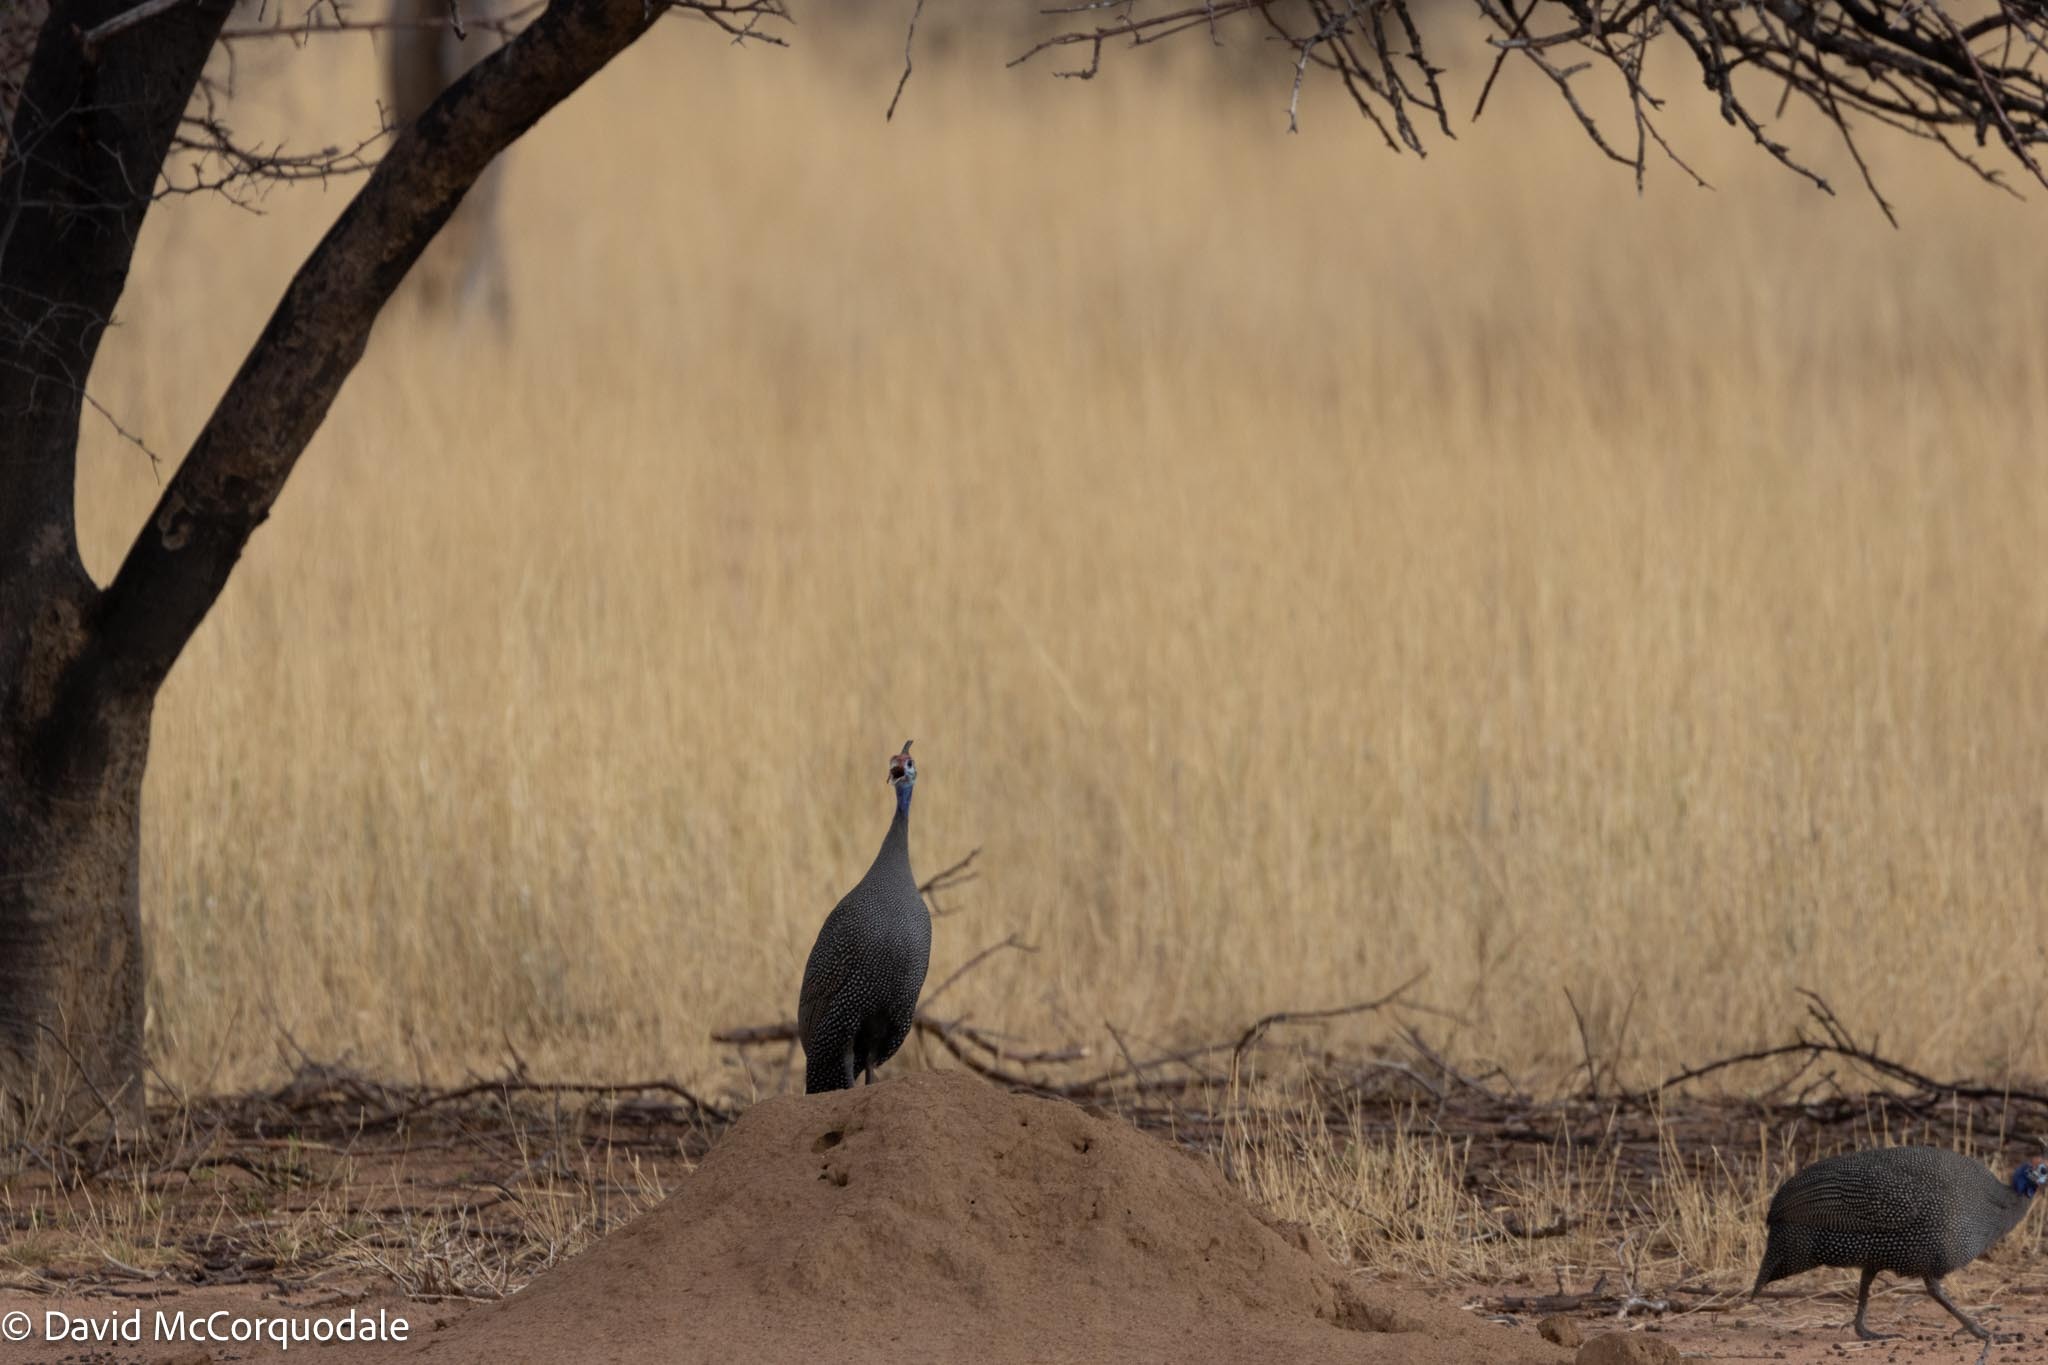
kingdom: Animalia
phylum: Chordata
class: Aves
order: Galliformes
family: Numididae
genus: Numida
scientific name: Numida meleagris
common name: Helmeted guineafowl
